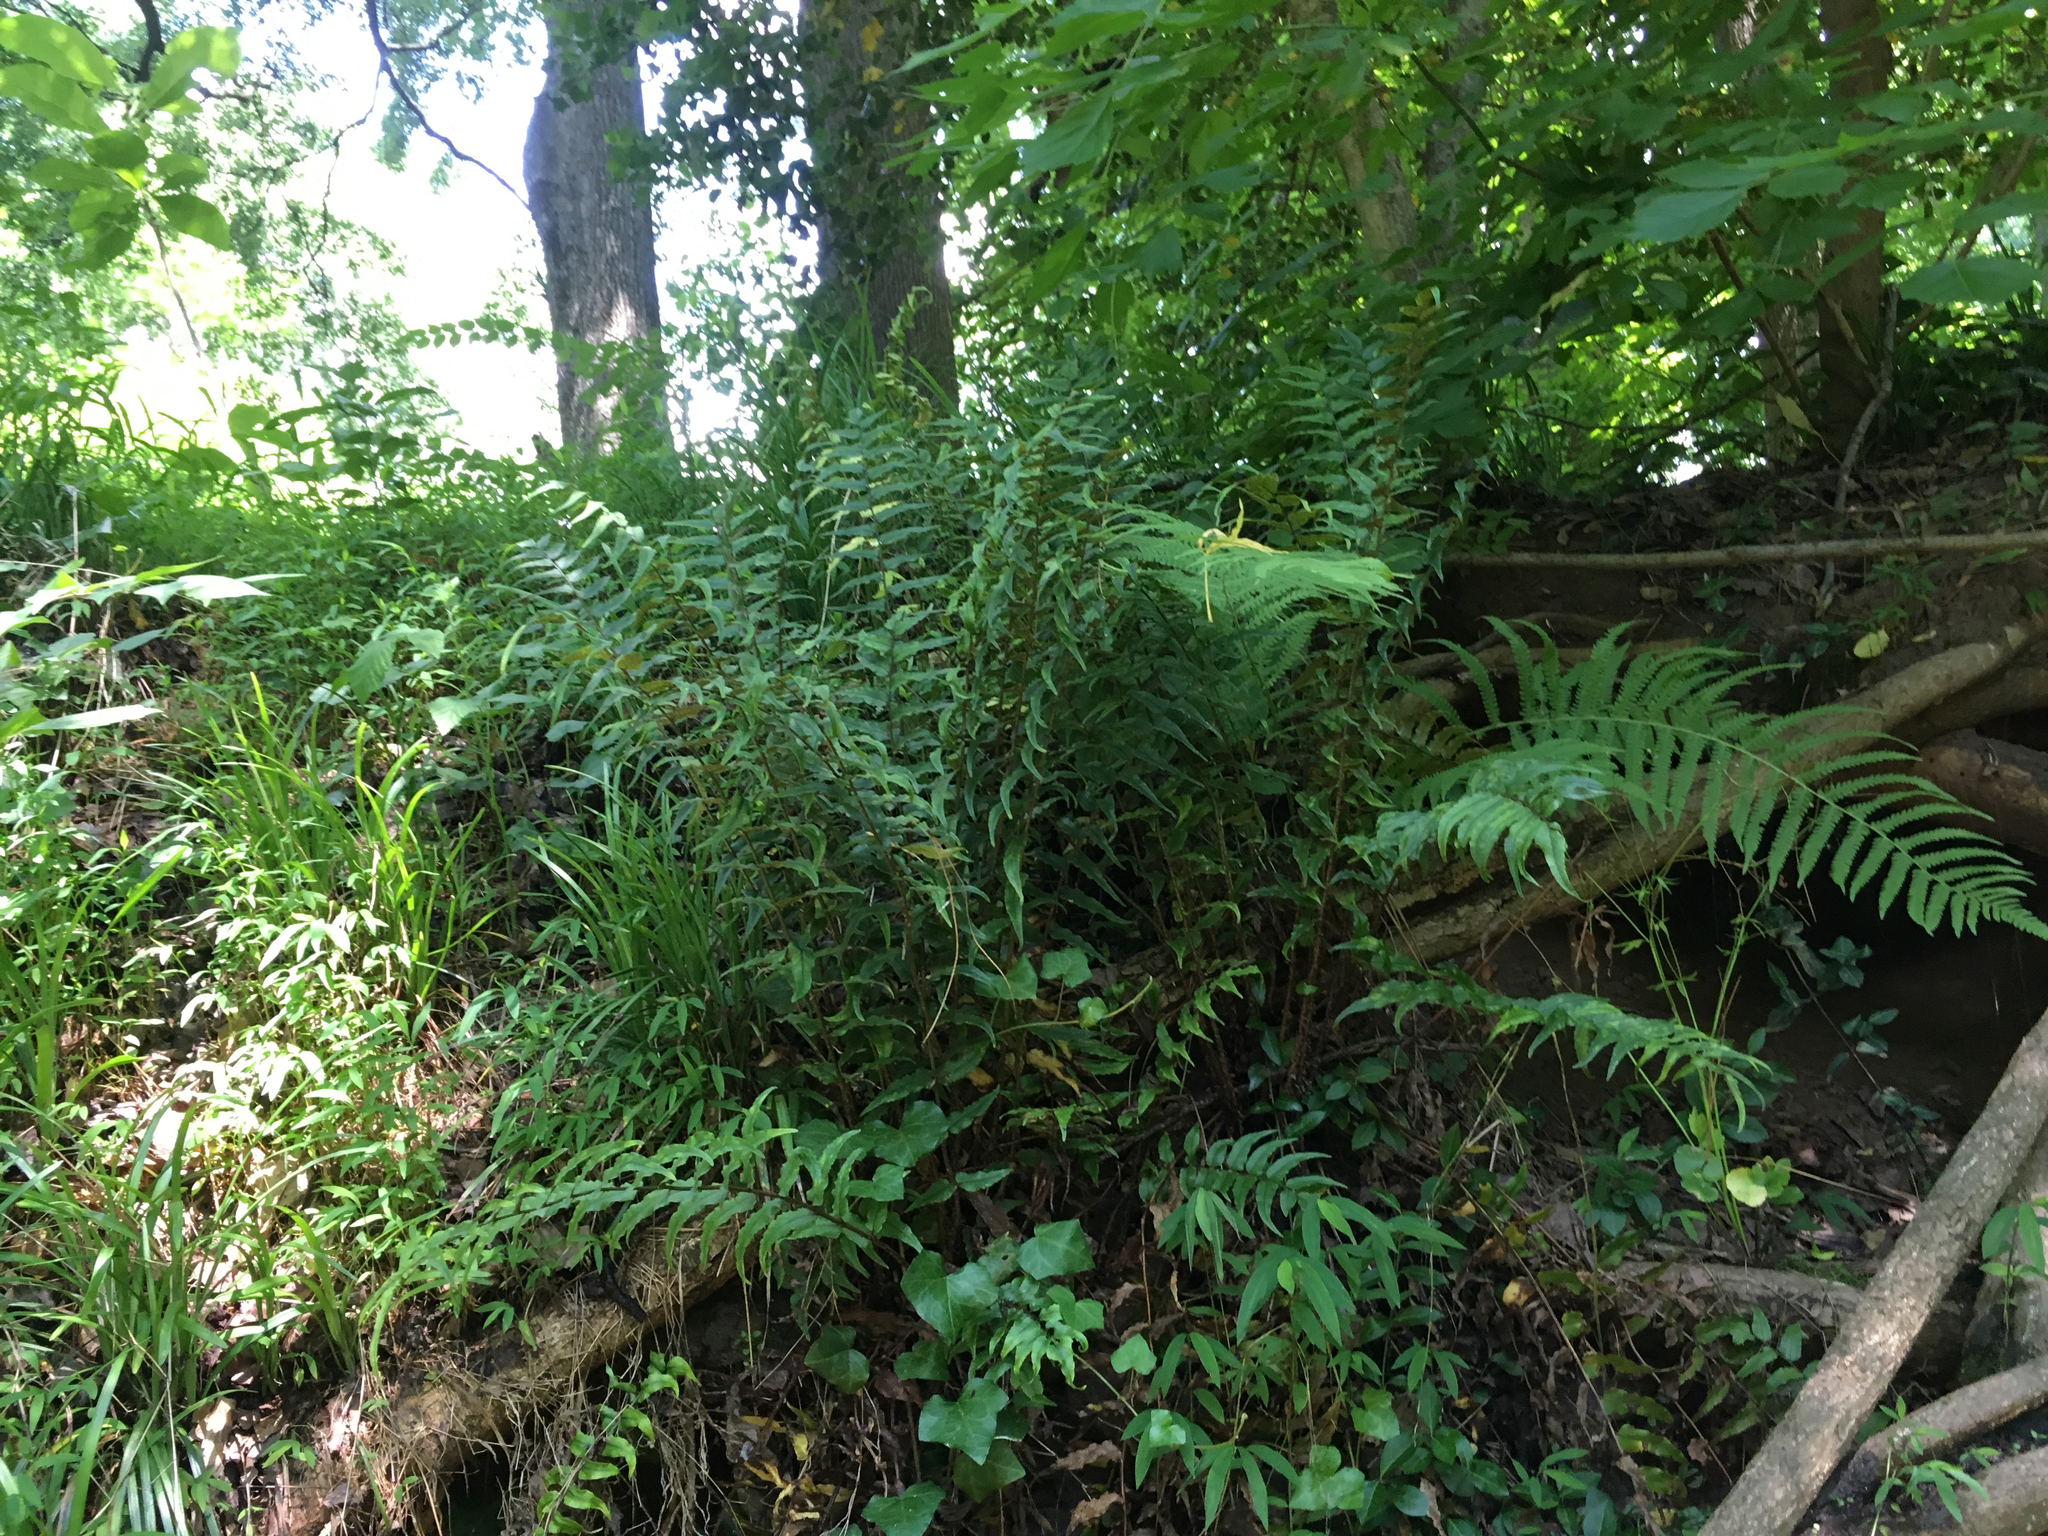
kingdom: Plantae
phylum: Tracheophyta
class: Polypodiopsida
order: Polypodiales
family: Dryopteridaceae
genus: Cyrtomium
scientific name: Cyrtomium fortunei
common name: Asian netvein hollyfern
